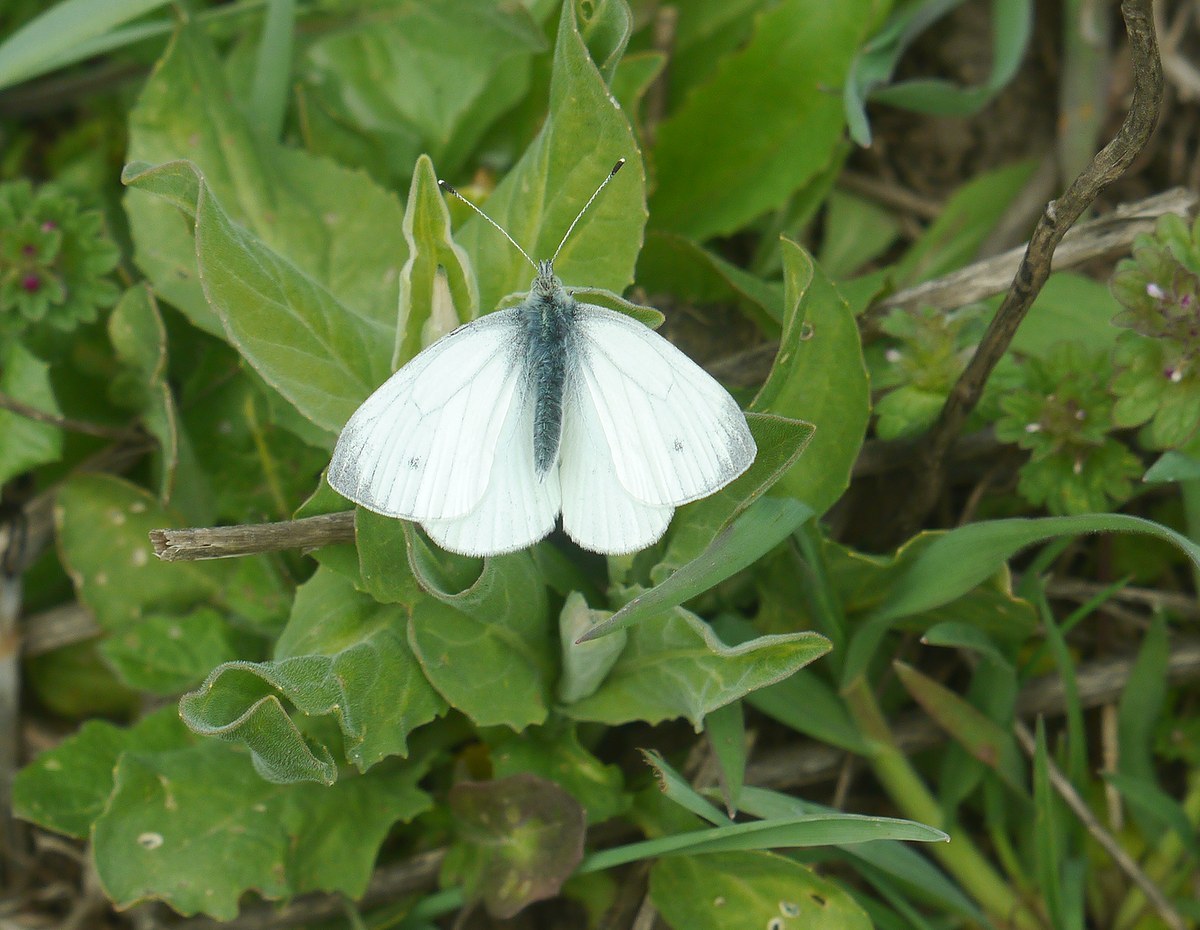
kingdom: Animalia
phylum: Arthropoda
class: Insecta
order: Lepidoptera
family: Pieridae
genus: Pieris
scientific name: Pieris napi
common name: Green-veined white
